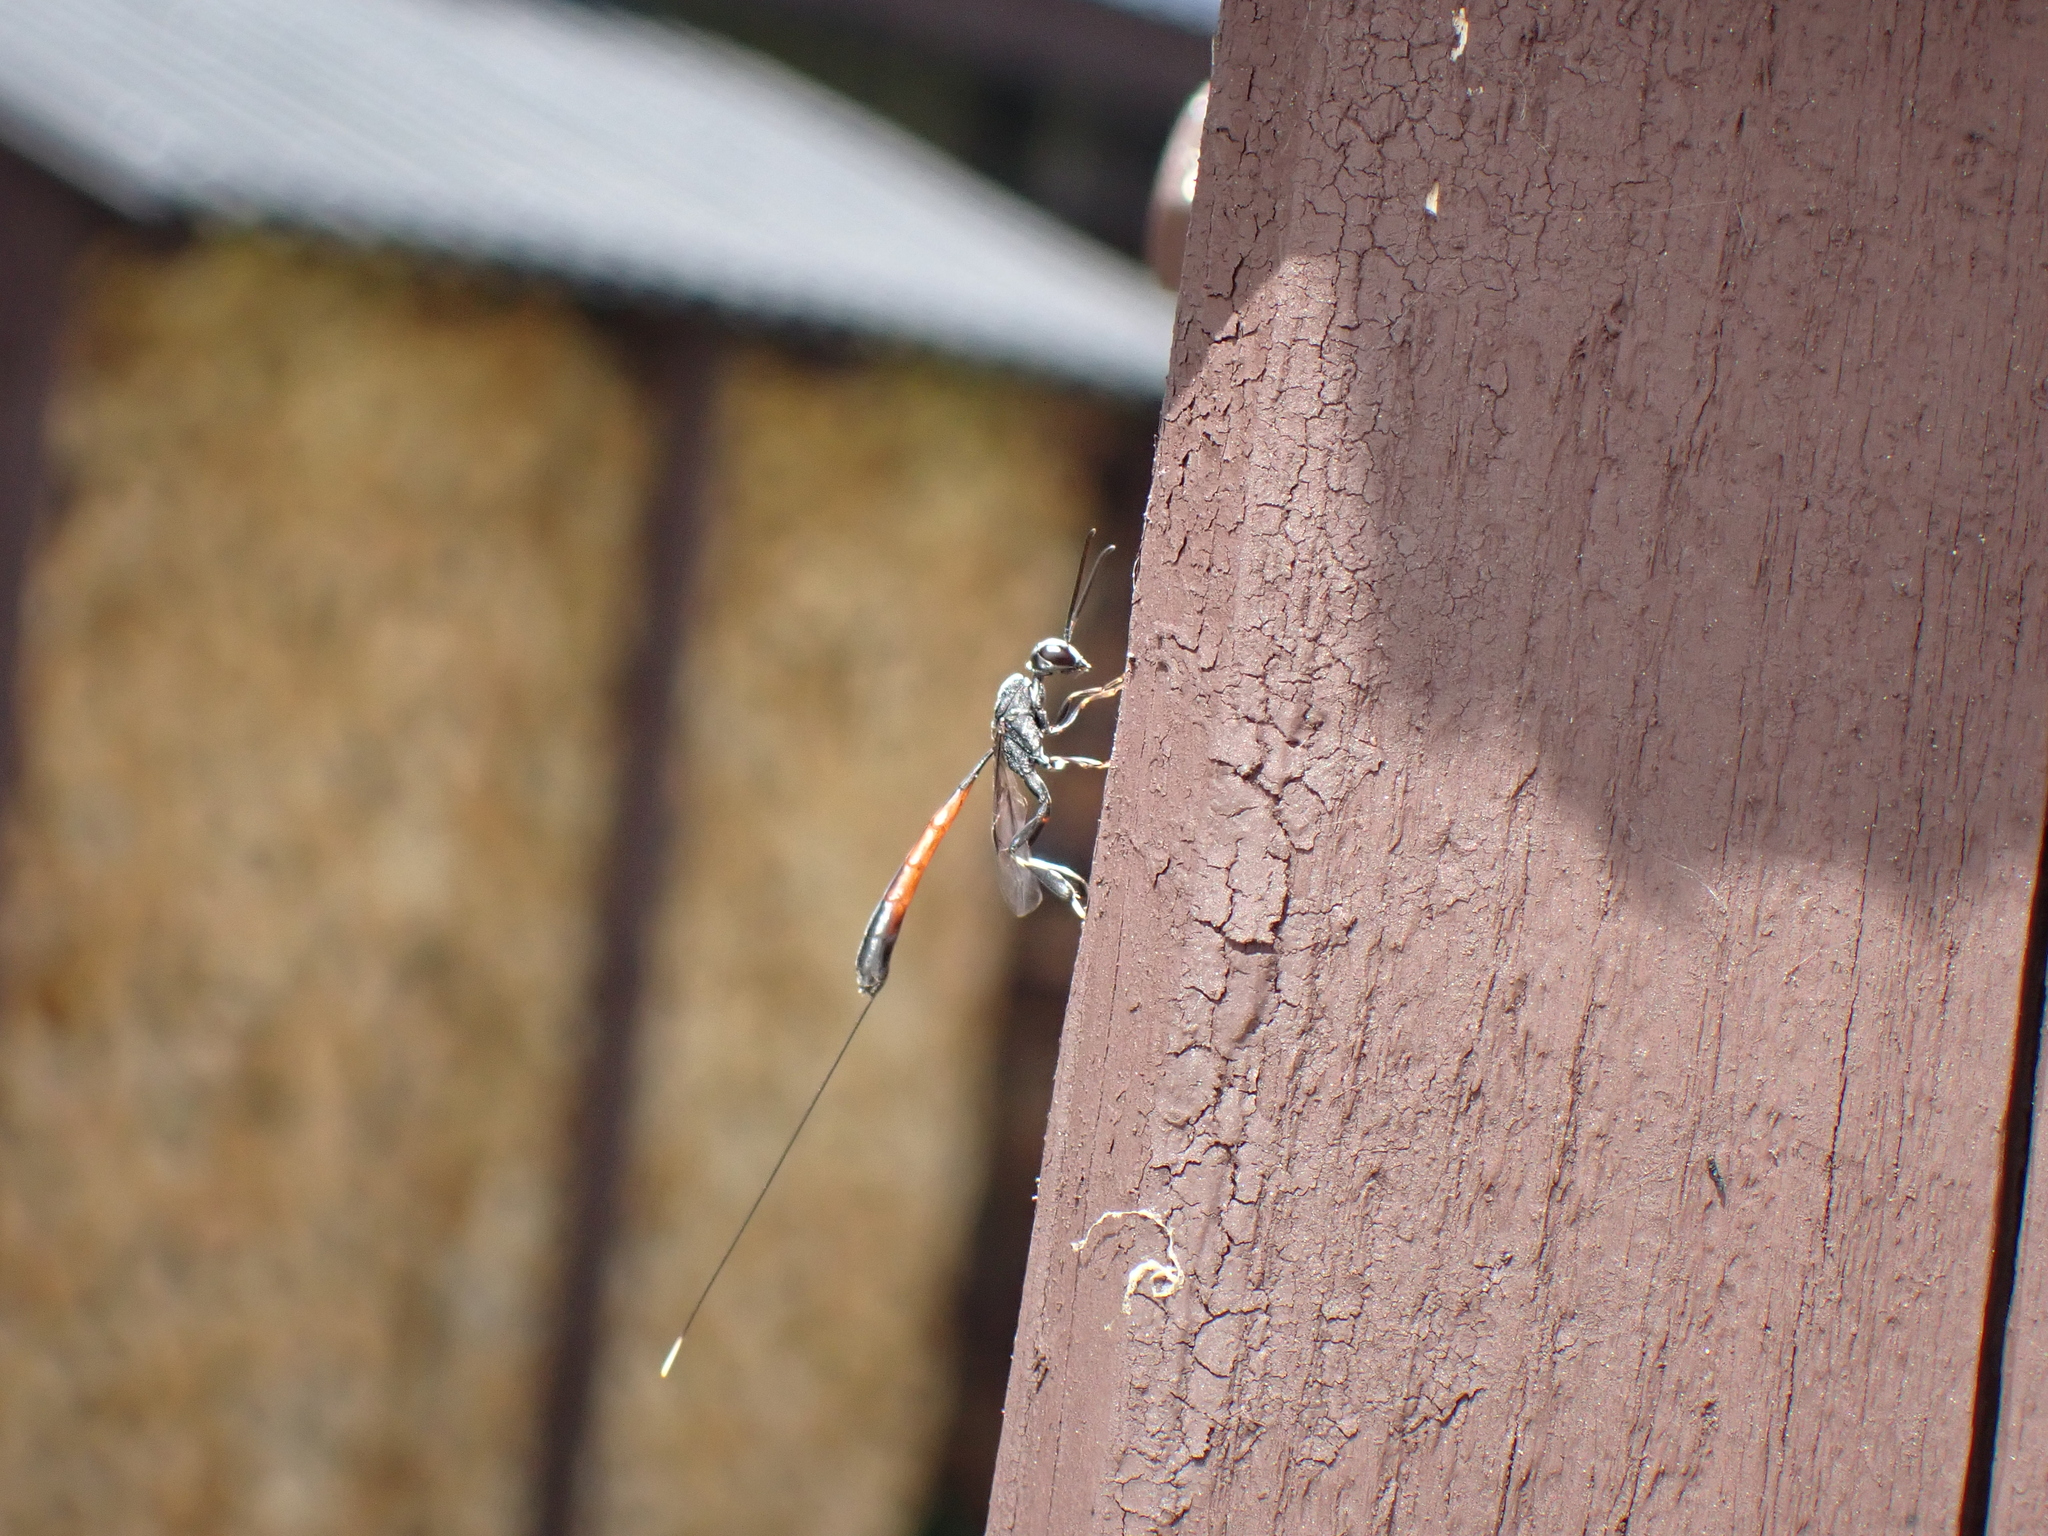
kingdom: Animalia
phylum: Arthropoda
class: Insecta
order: Hymenoptera
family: Gasteruptiidae
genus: Gasteruption
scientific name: Gasteruption
